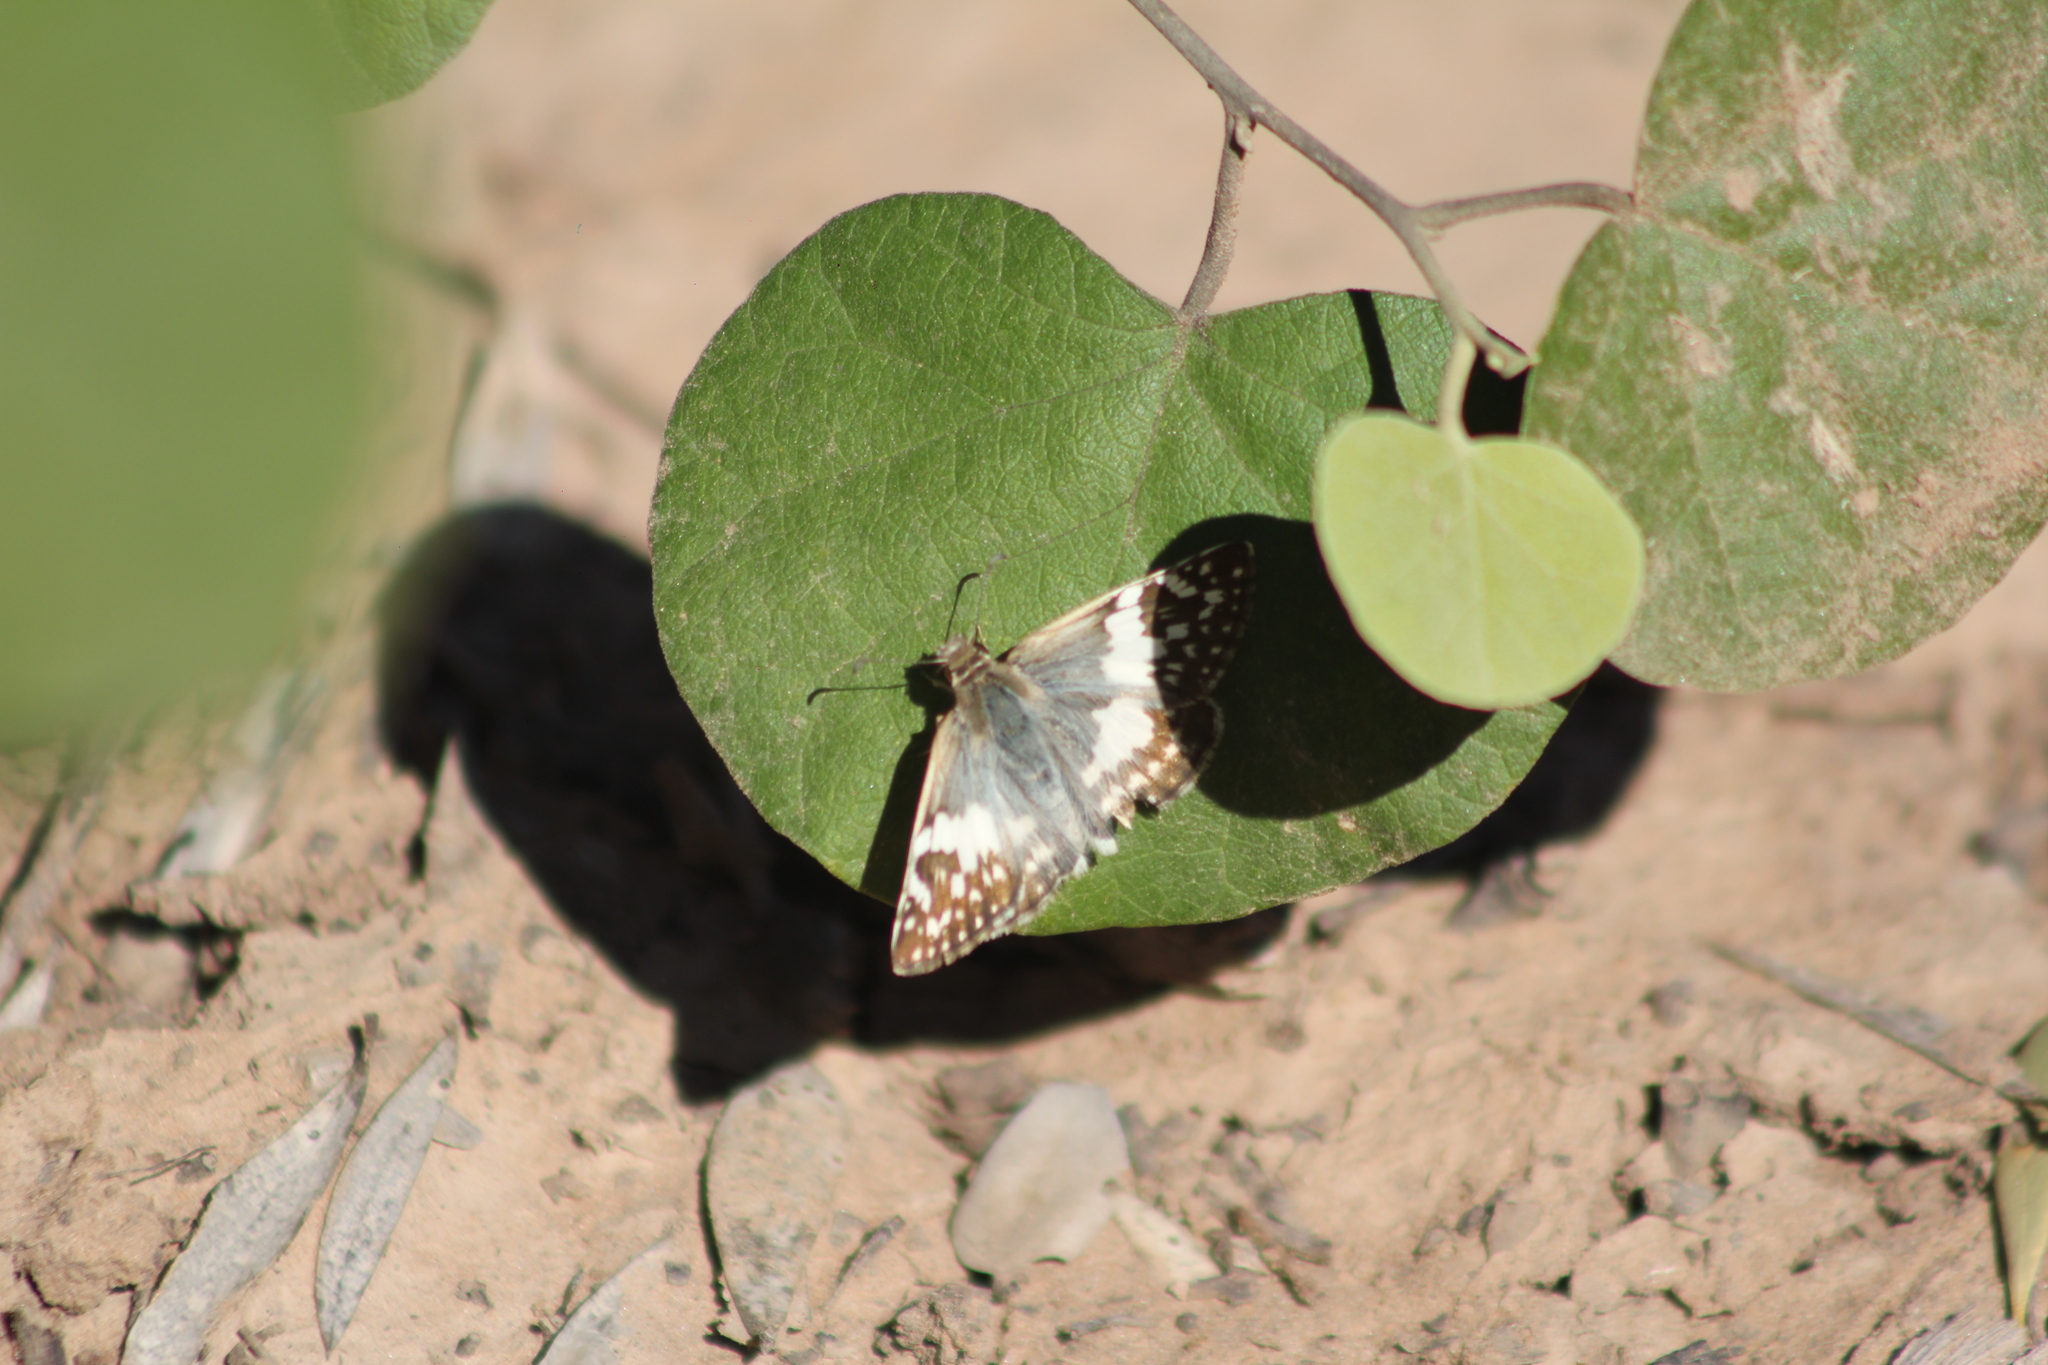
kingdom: Animalia
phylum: Arthropoda
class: Insecta
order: Lepidoptera
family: Hesperiidae
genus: Heliopyrgus
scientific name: Heliopyrgus domicella
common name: Erichson's white skipper
